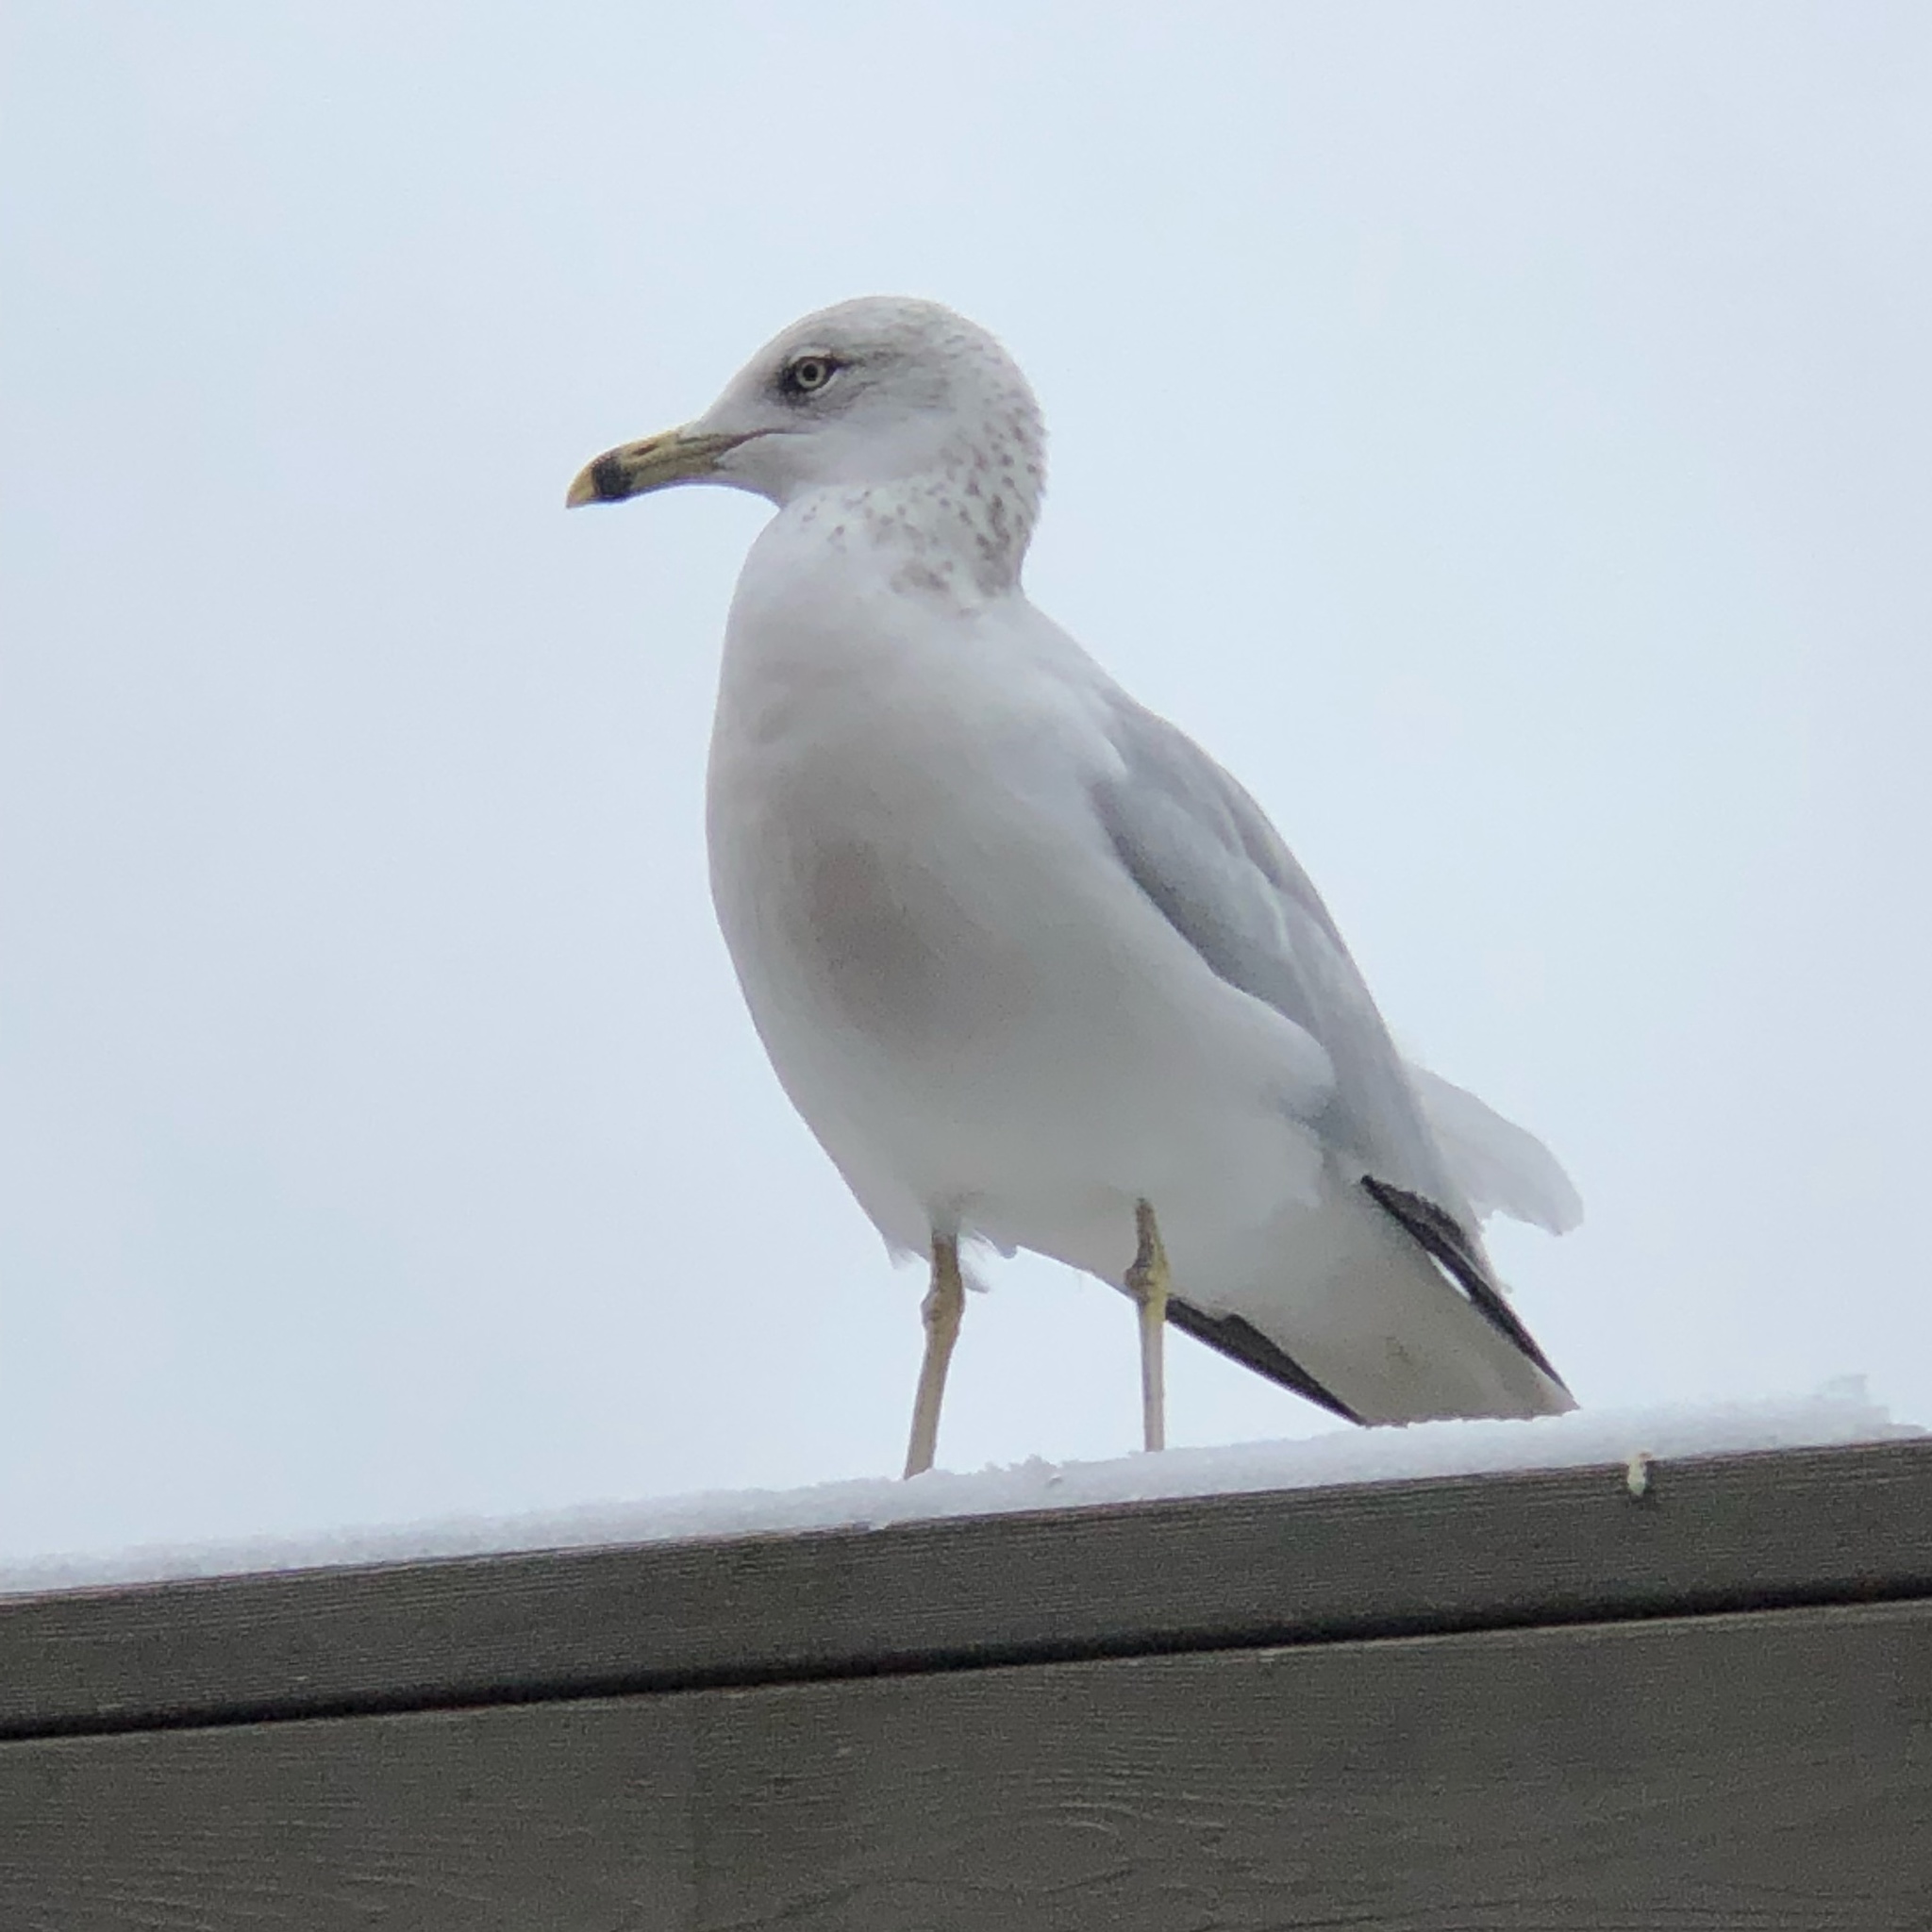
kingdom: Animalia
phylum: Chordata
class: Aves
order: Charadriiformes
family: Laridae
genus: Larus
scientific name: Larus delawarensis
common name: Ring-billed gull
